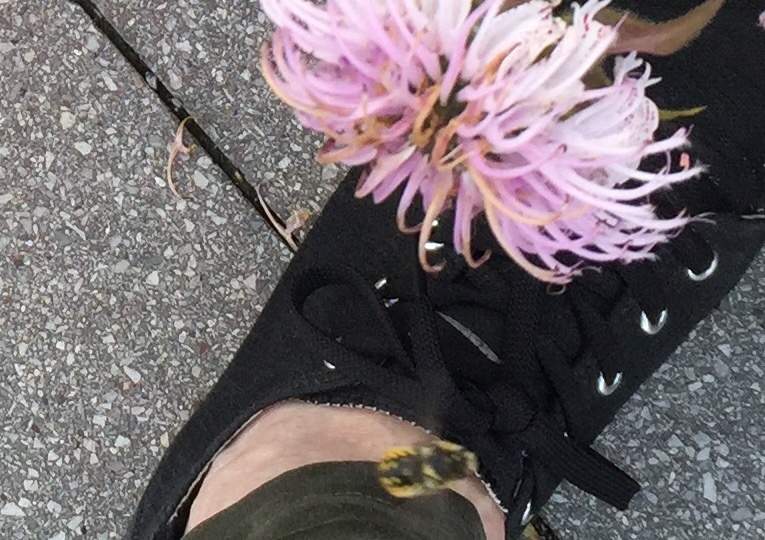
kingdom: Animalia
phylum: Arthropoda
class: Insecta
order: Hymenoptera
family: Megachilidae
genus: Anthidium
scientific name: Anthidium manicatum
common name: Wool carder bee
